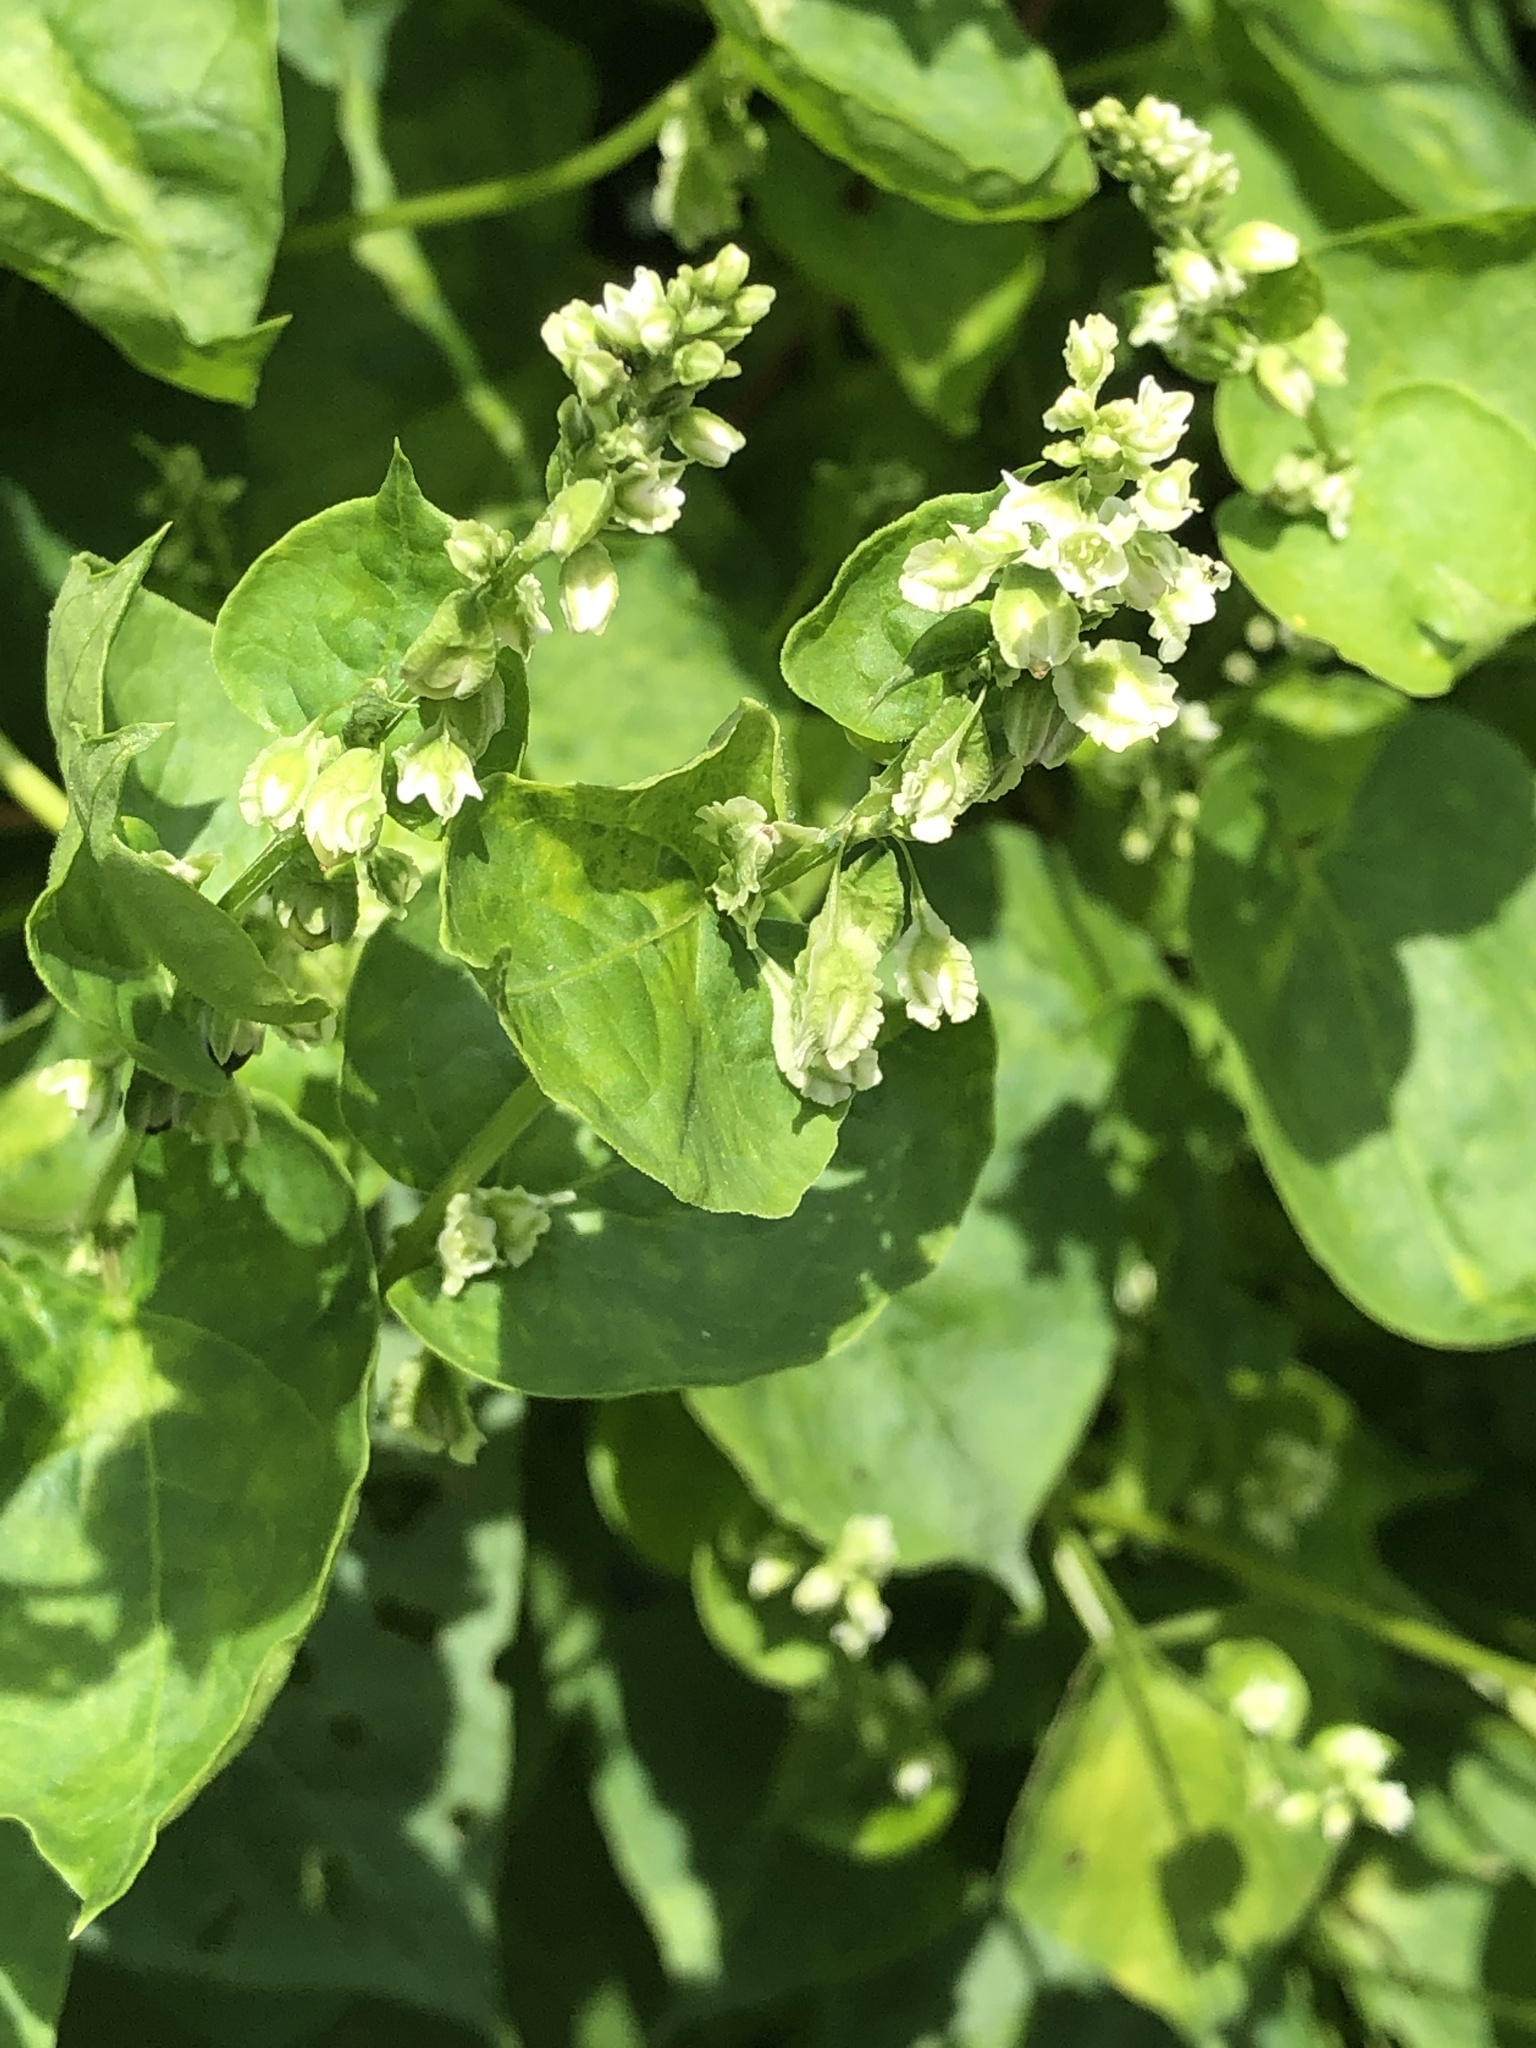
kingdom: Plantae
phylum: Tracheophyta
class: Magnoliopsida
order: Caryophyllales
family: Polygonaceae
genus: Fallopia
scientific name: Fallopia scandens
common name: Climbing false buckwheat
